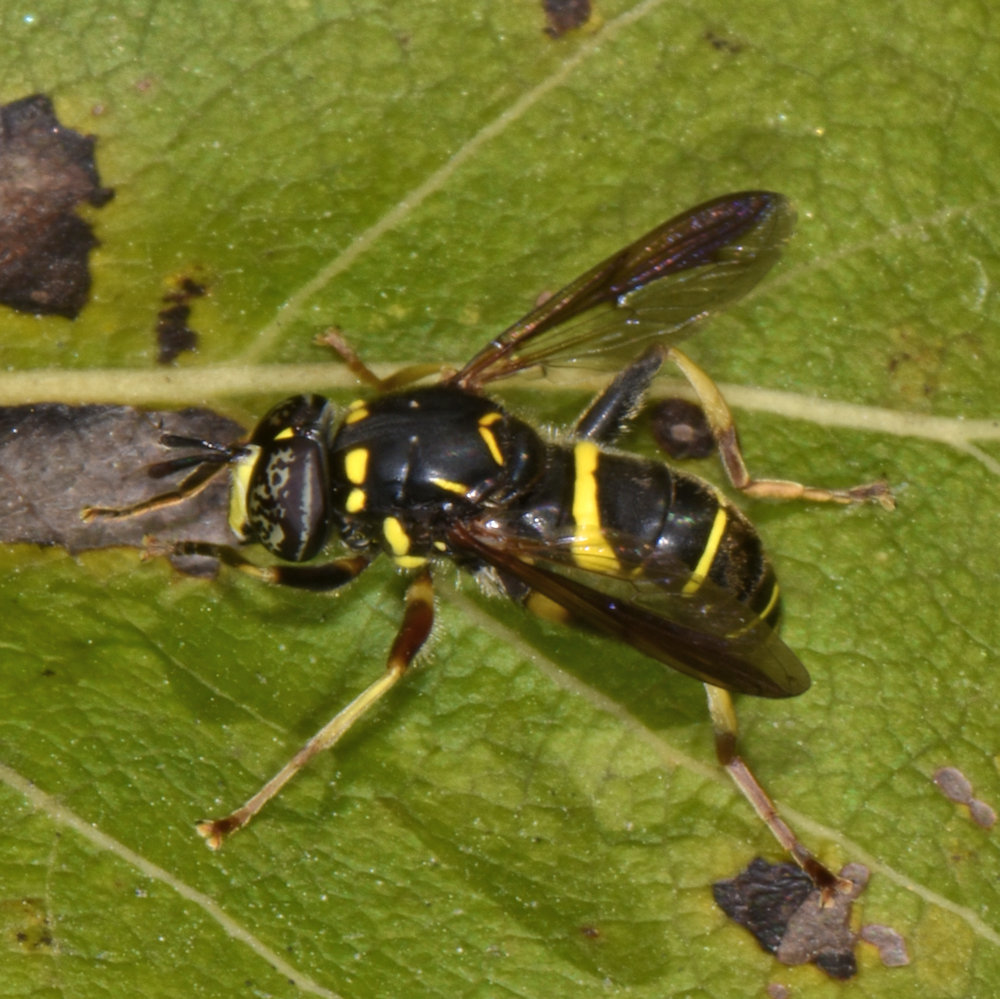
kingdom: Animalia
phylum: Arthropoda
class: Insecta
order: Diptera
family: Syrphidae
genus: Spilomyia
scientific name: Spilomyia sayi
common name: Four-lined hornet fly
